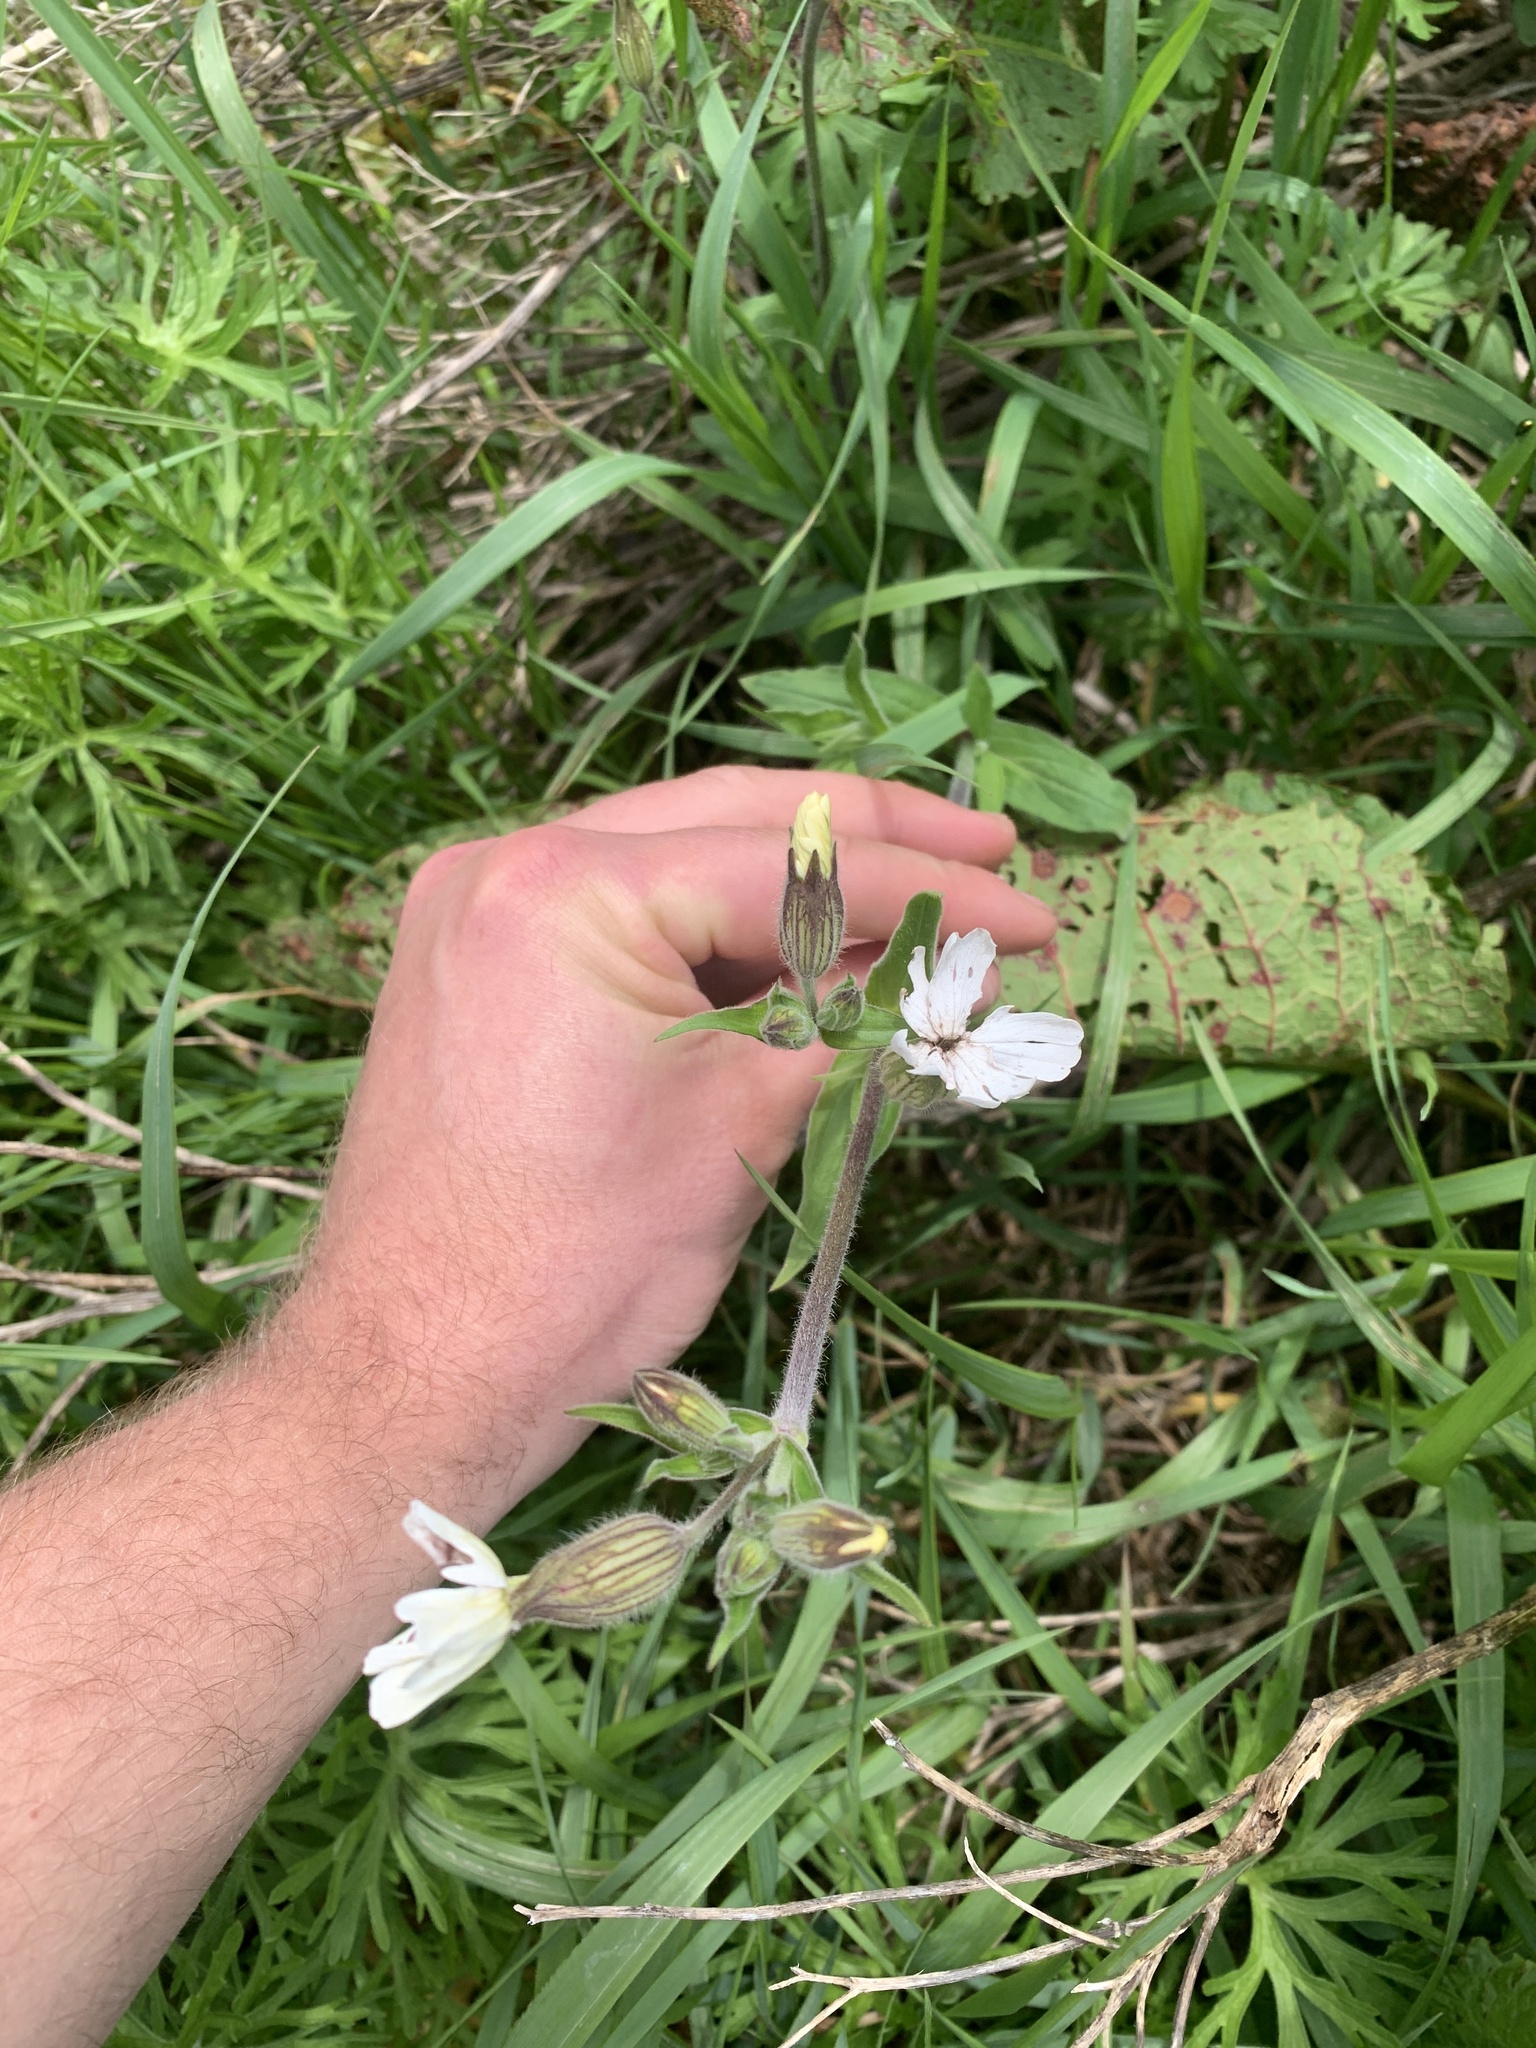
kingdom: Fungi
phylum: Basidiomycota
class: Microbotryomycetes
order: Microbotryales
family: Microbotryaceae
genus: Microbotryum
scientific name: Microbotryum lychnidis-dioicae
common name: Campion anther smut
